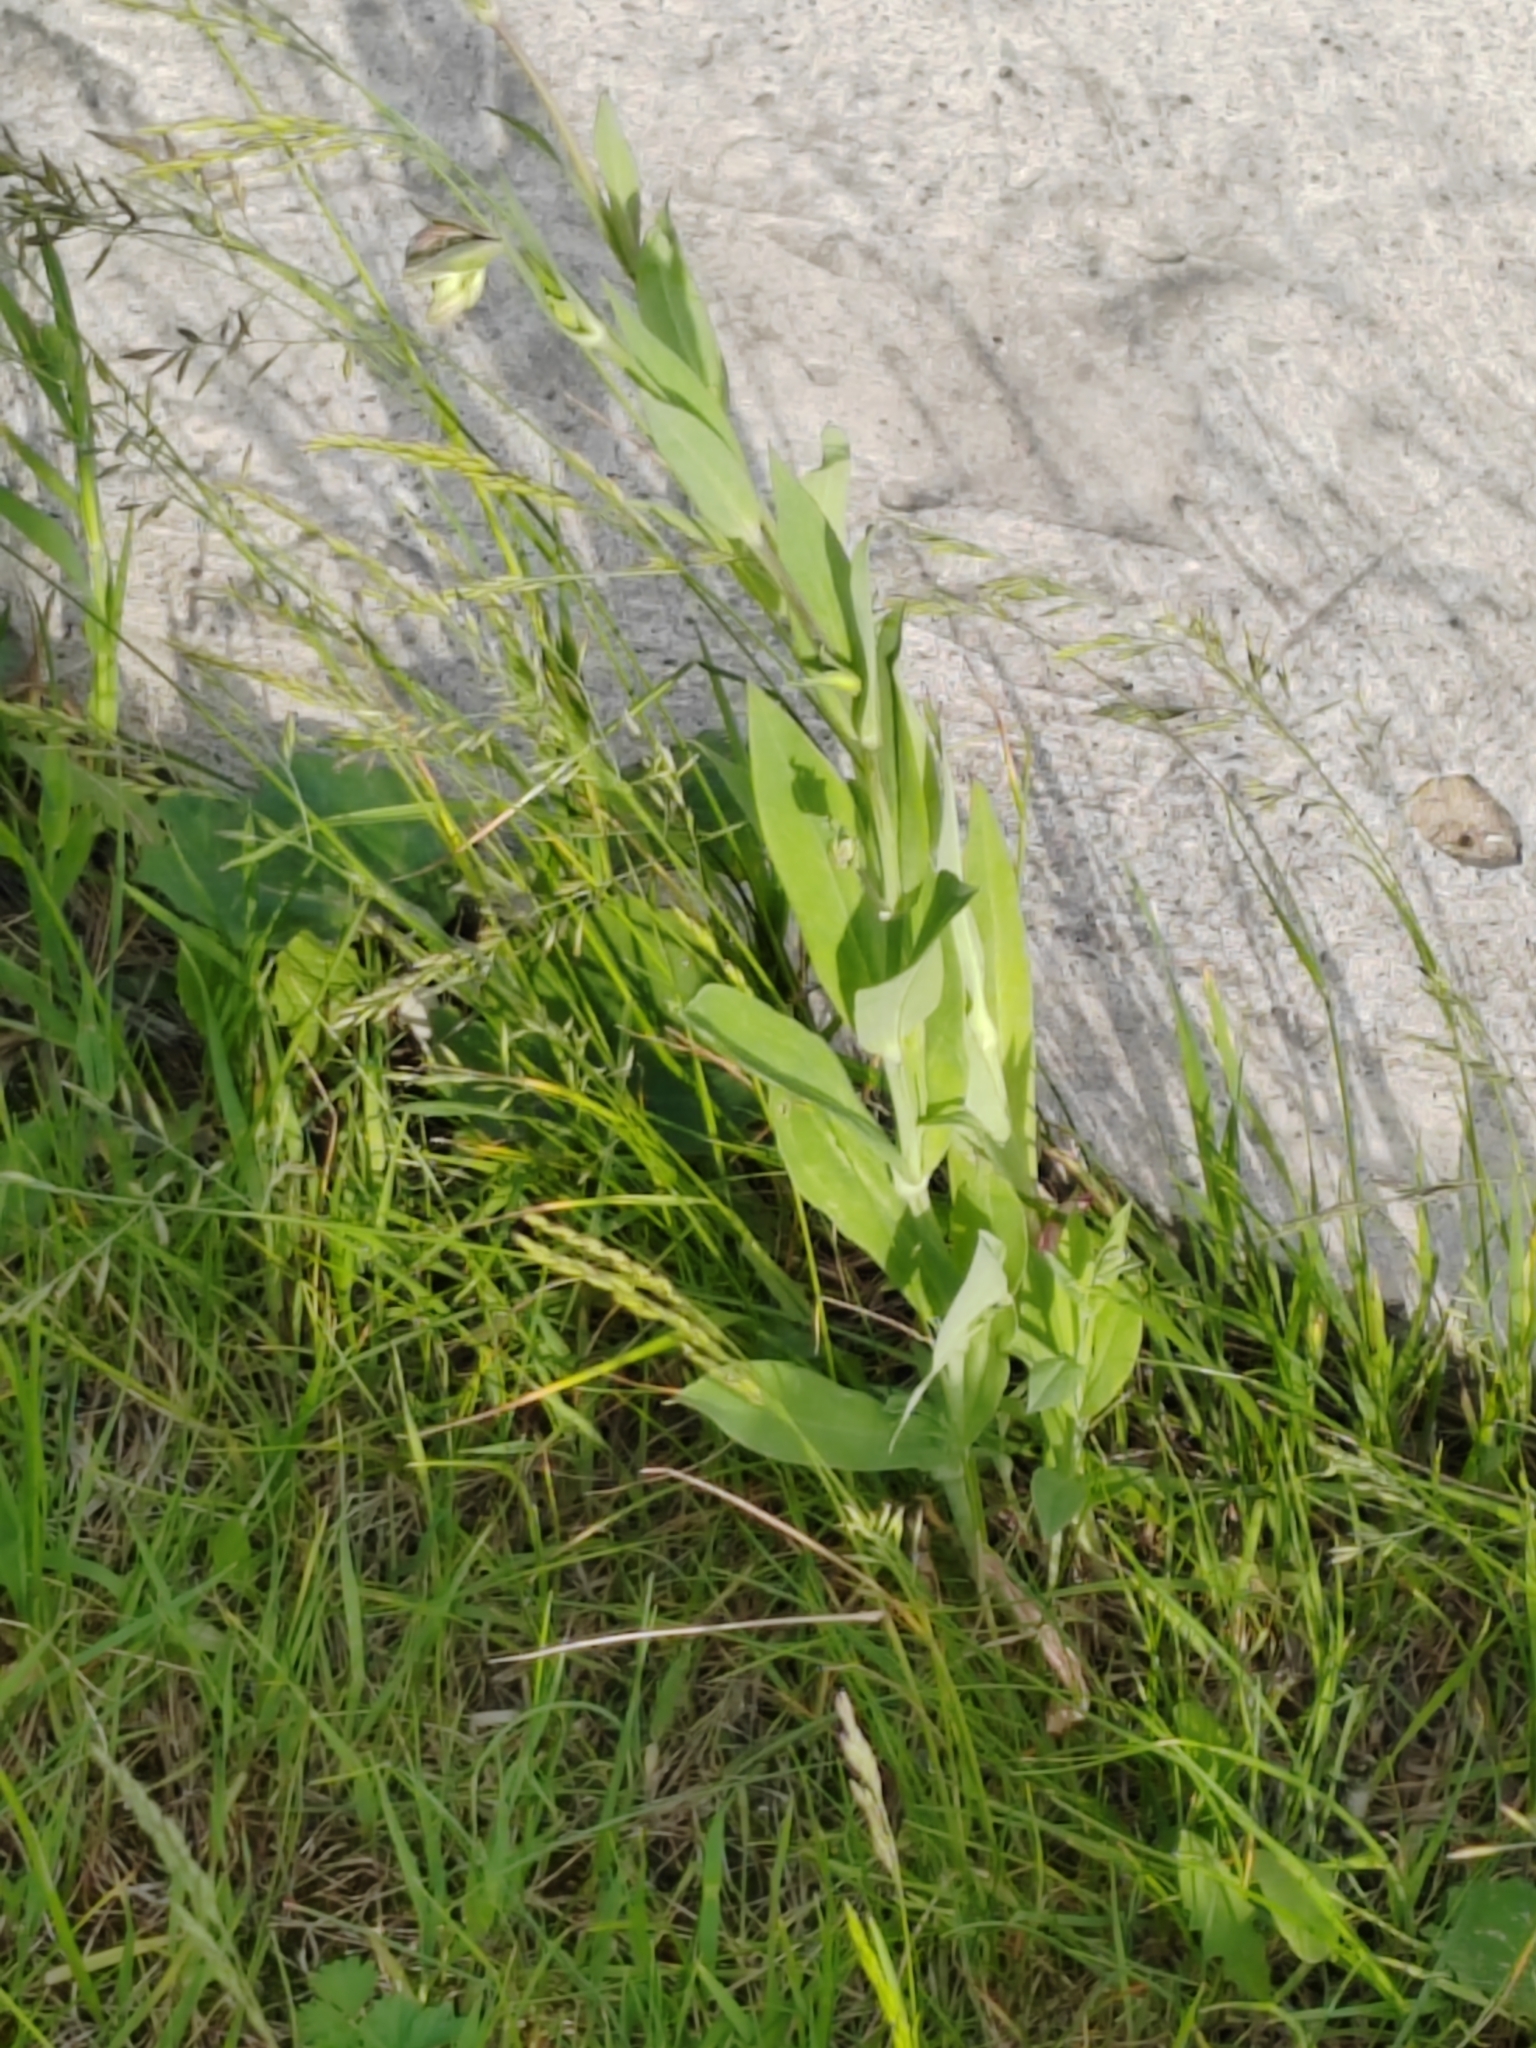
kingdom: Plantae
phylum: Tracheophyta
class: Magnoliopsida
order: Caryophyllales
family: Caryophyllaceae
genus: Silene
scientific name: Silene vulgaris
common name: Bladder campion
